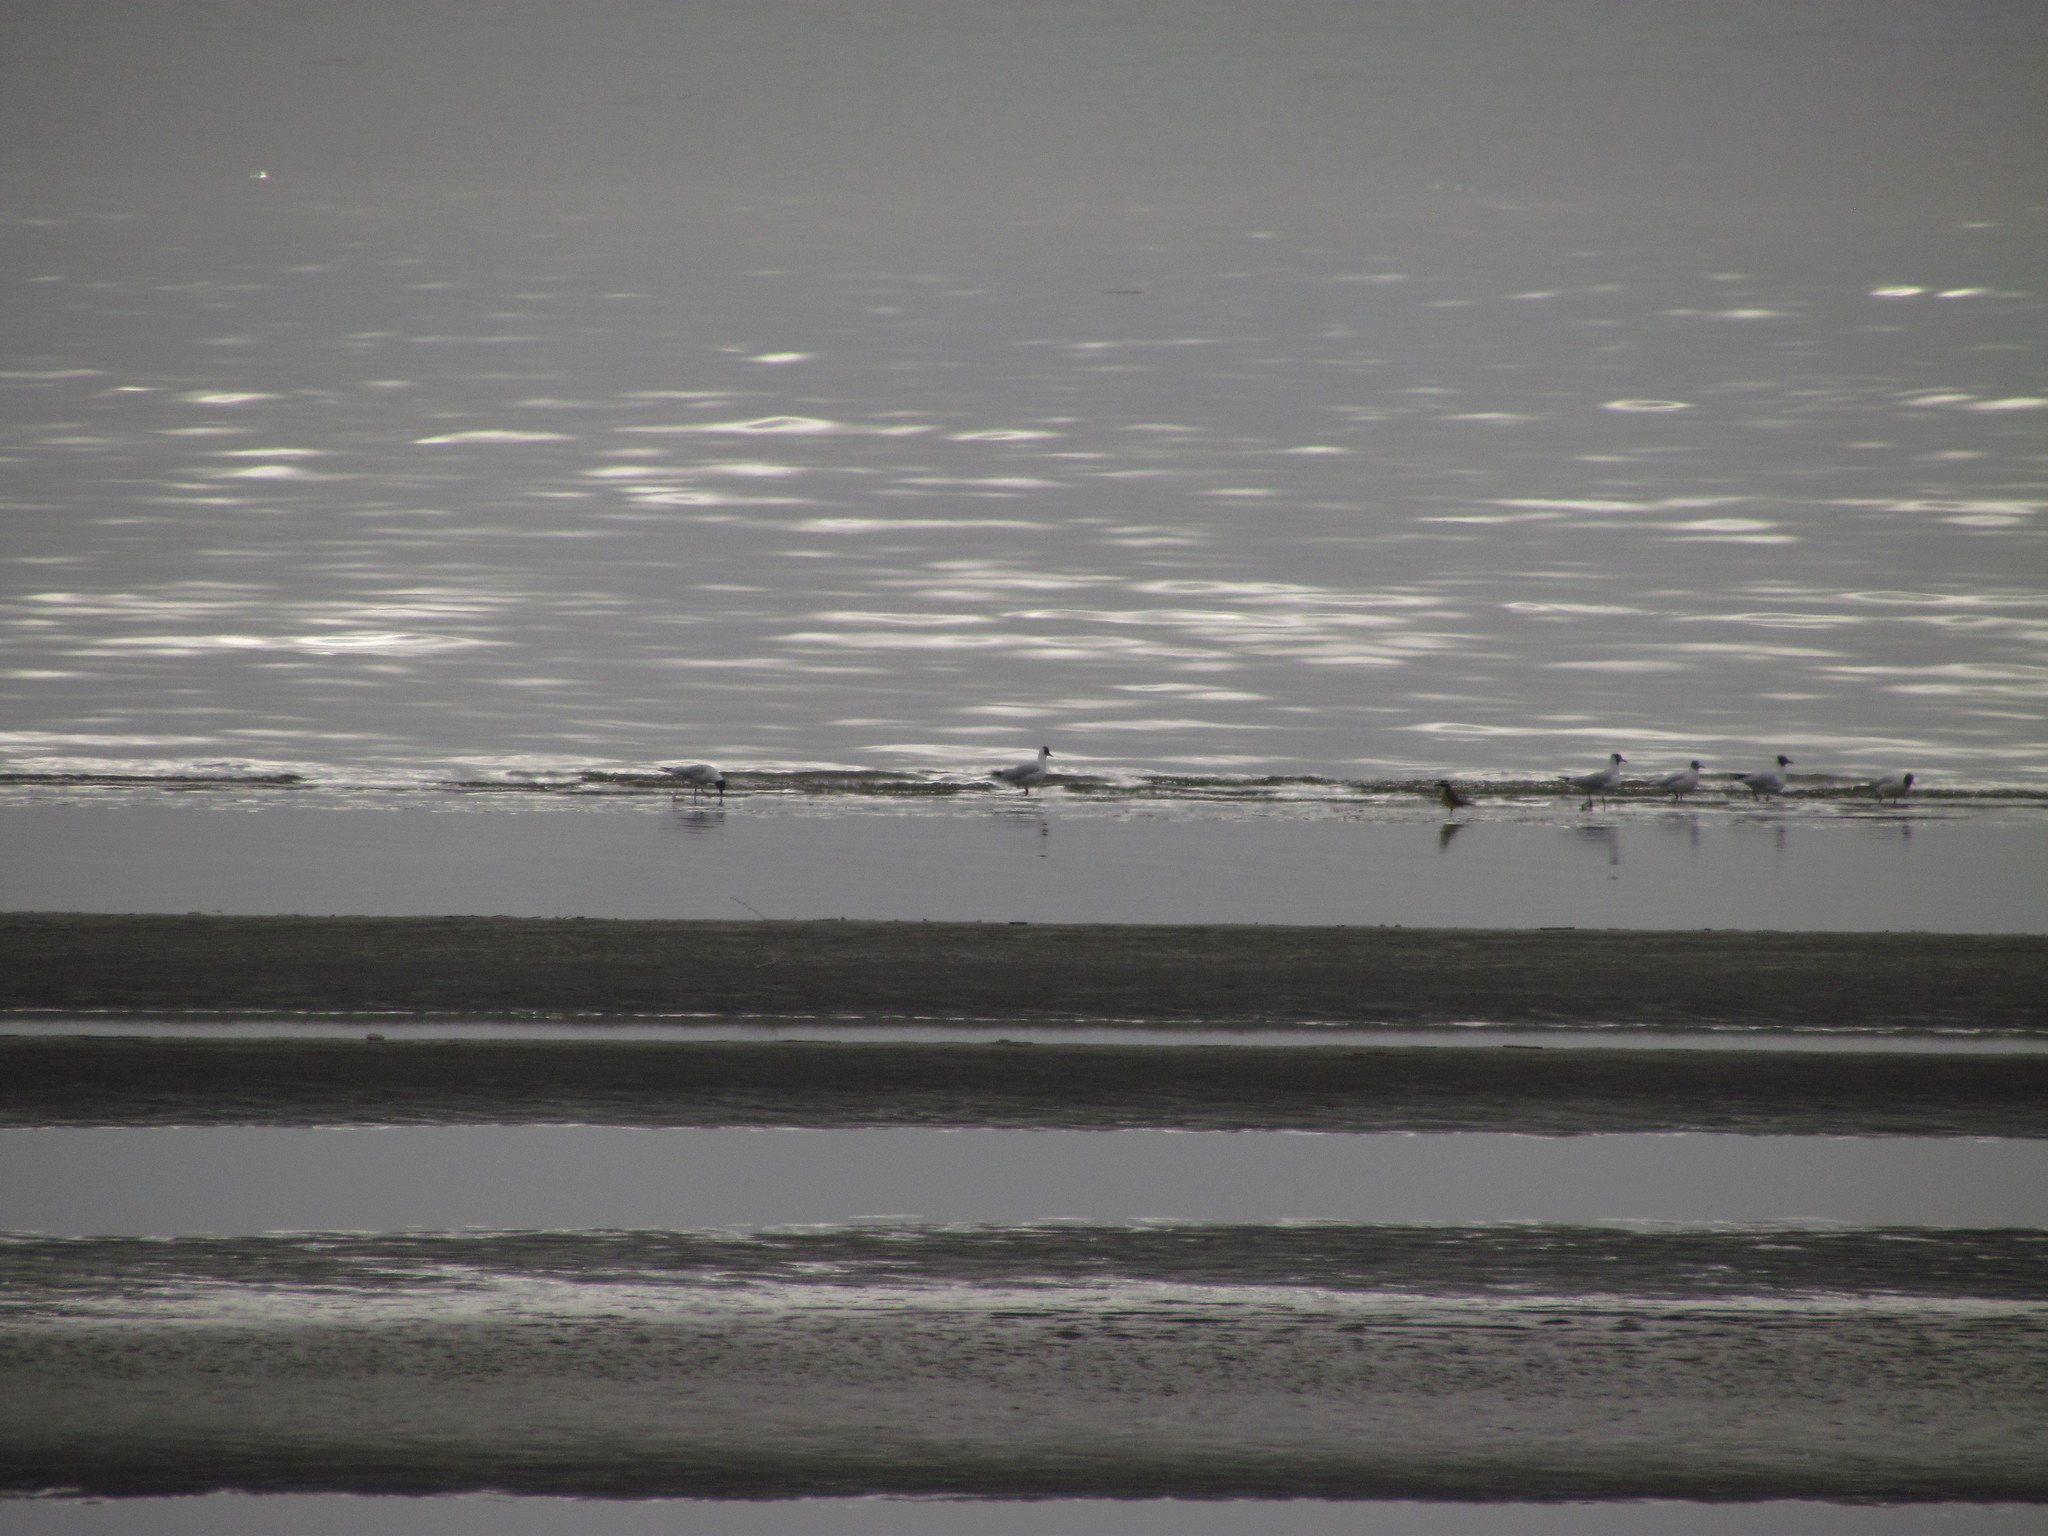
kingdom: Animalia
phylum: Chordata
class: Aves
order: Charadriiformes
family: Laridae
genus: Chroicocephalus
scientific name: Chroicocephalus maculipennis
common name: Brown-hooded gull
